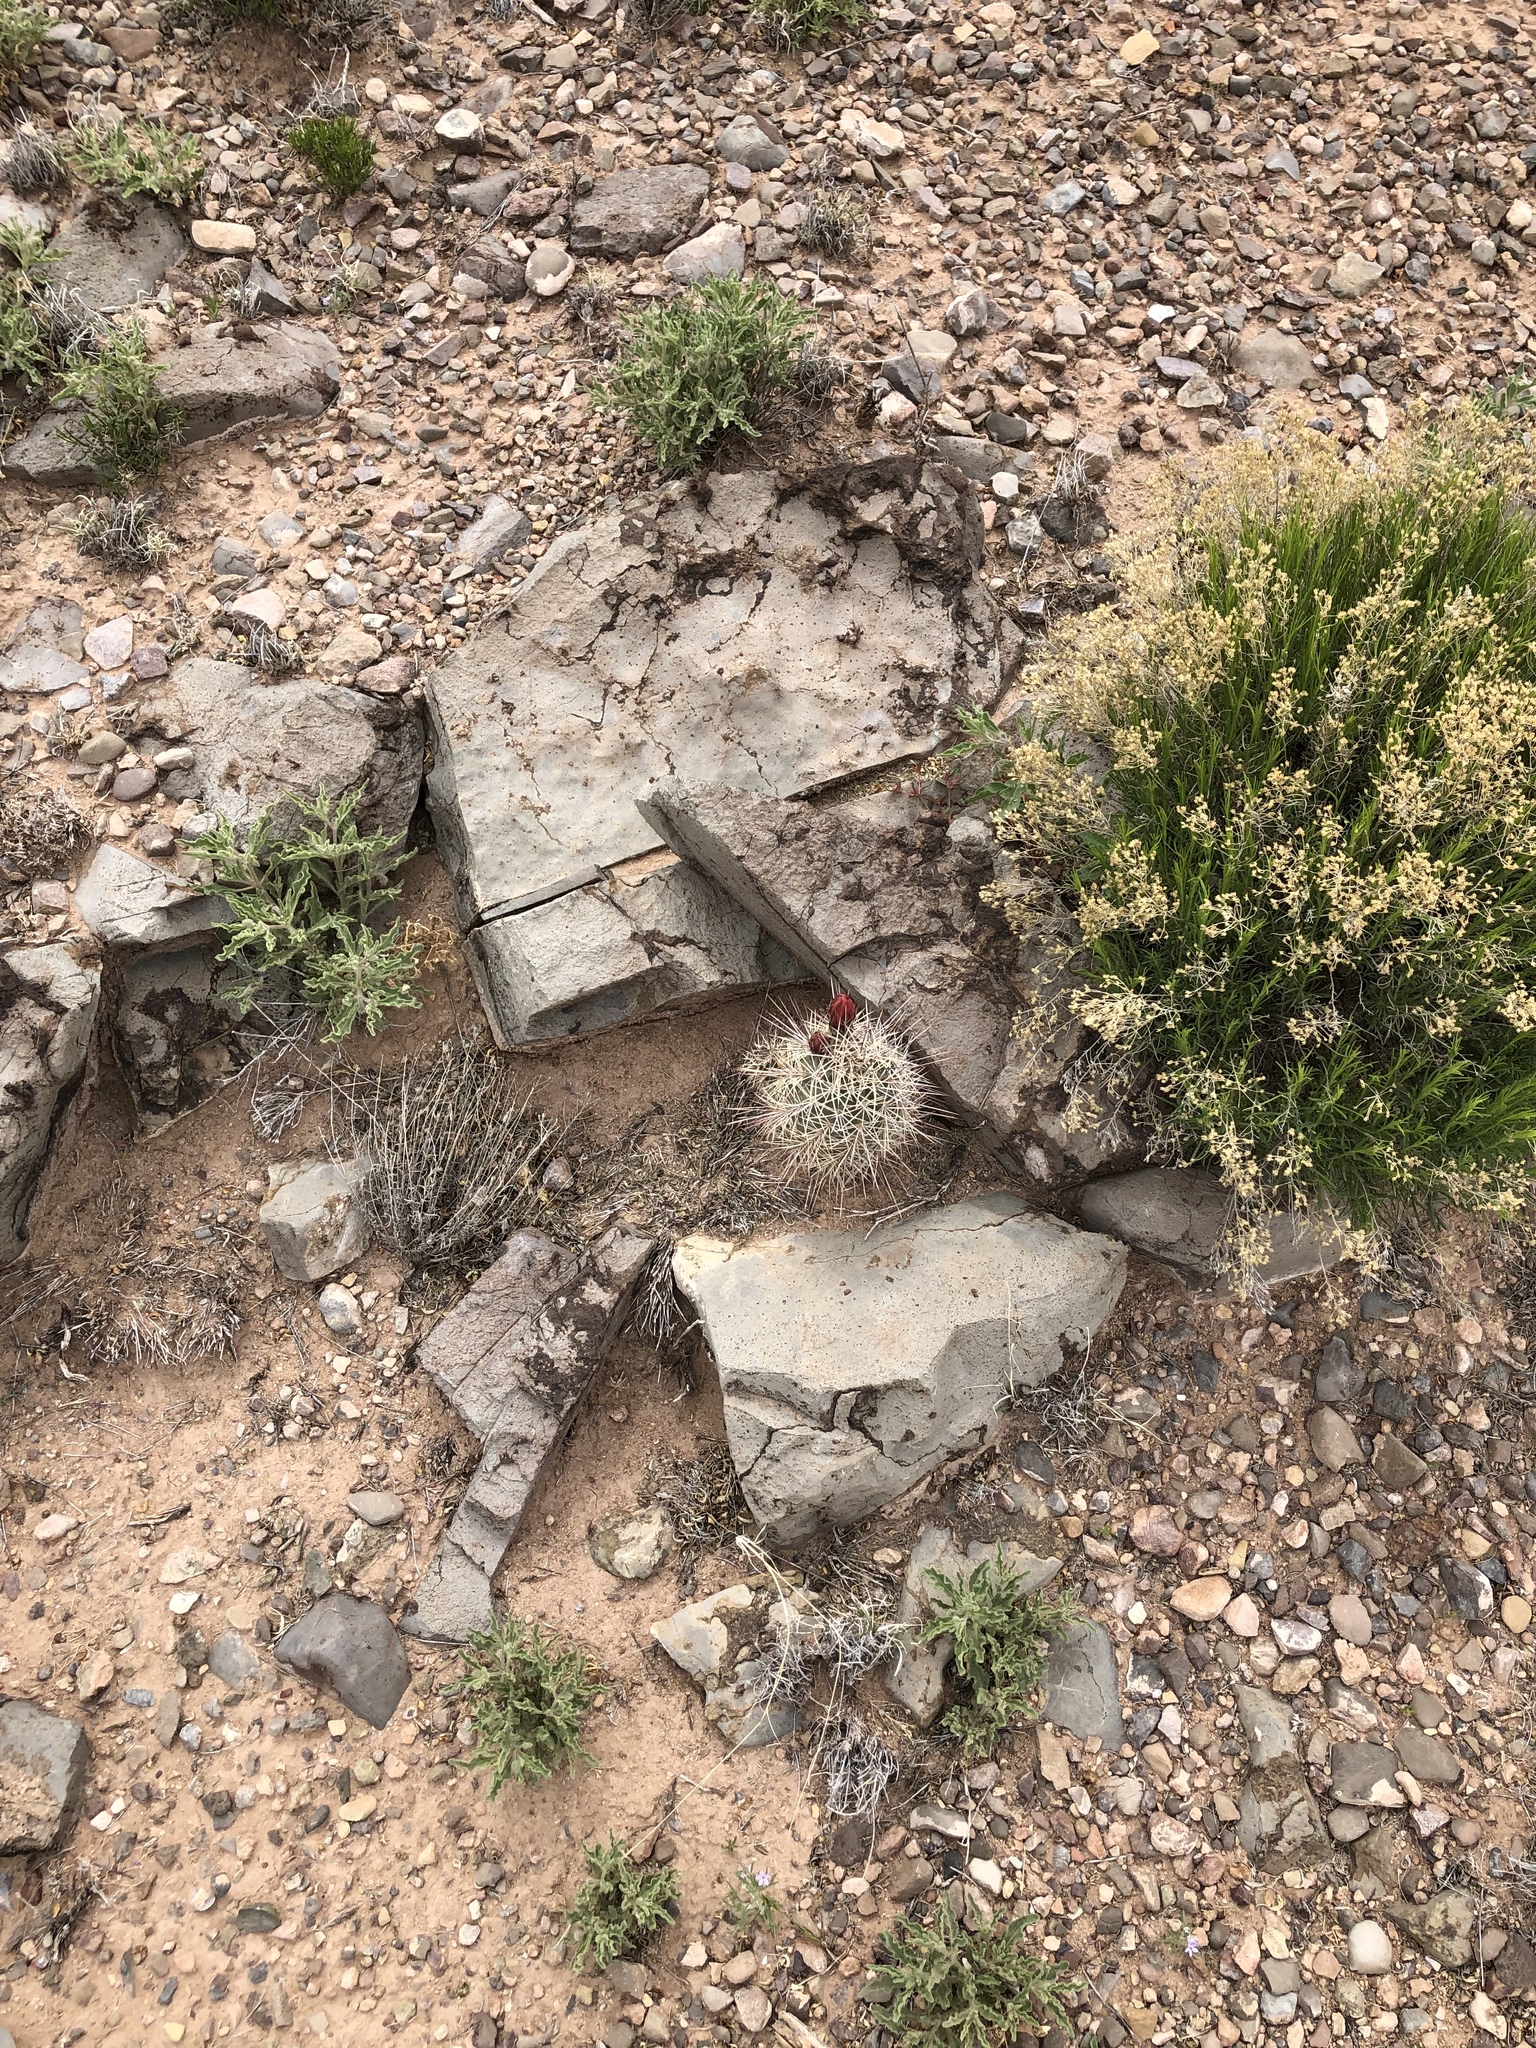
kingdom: Plantae
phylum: Tracheophyta
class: Magnoliopsida
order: Caryophyllales
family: Cactaceae
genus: Echinocereus
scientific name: Echinocereus coccineus
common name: Scarlet hedgehog cactus
